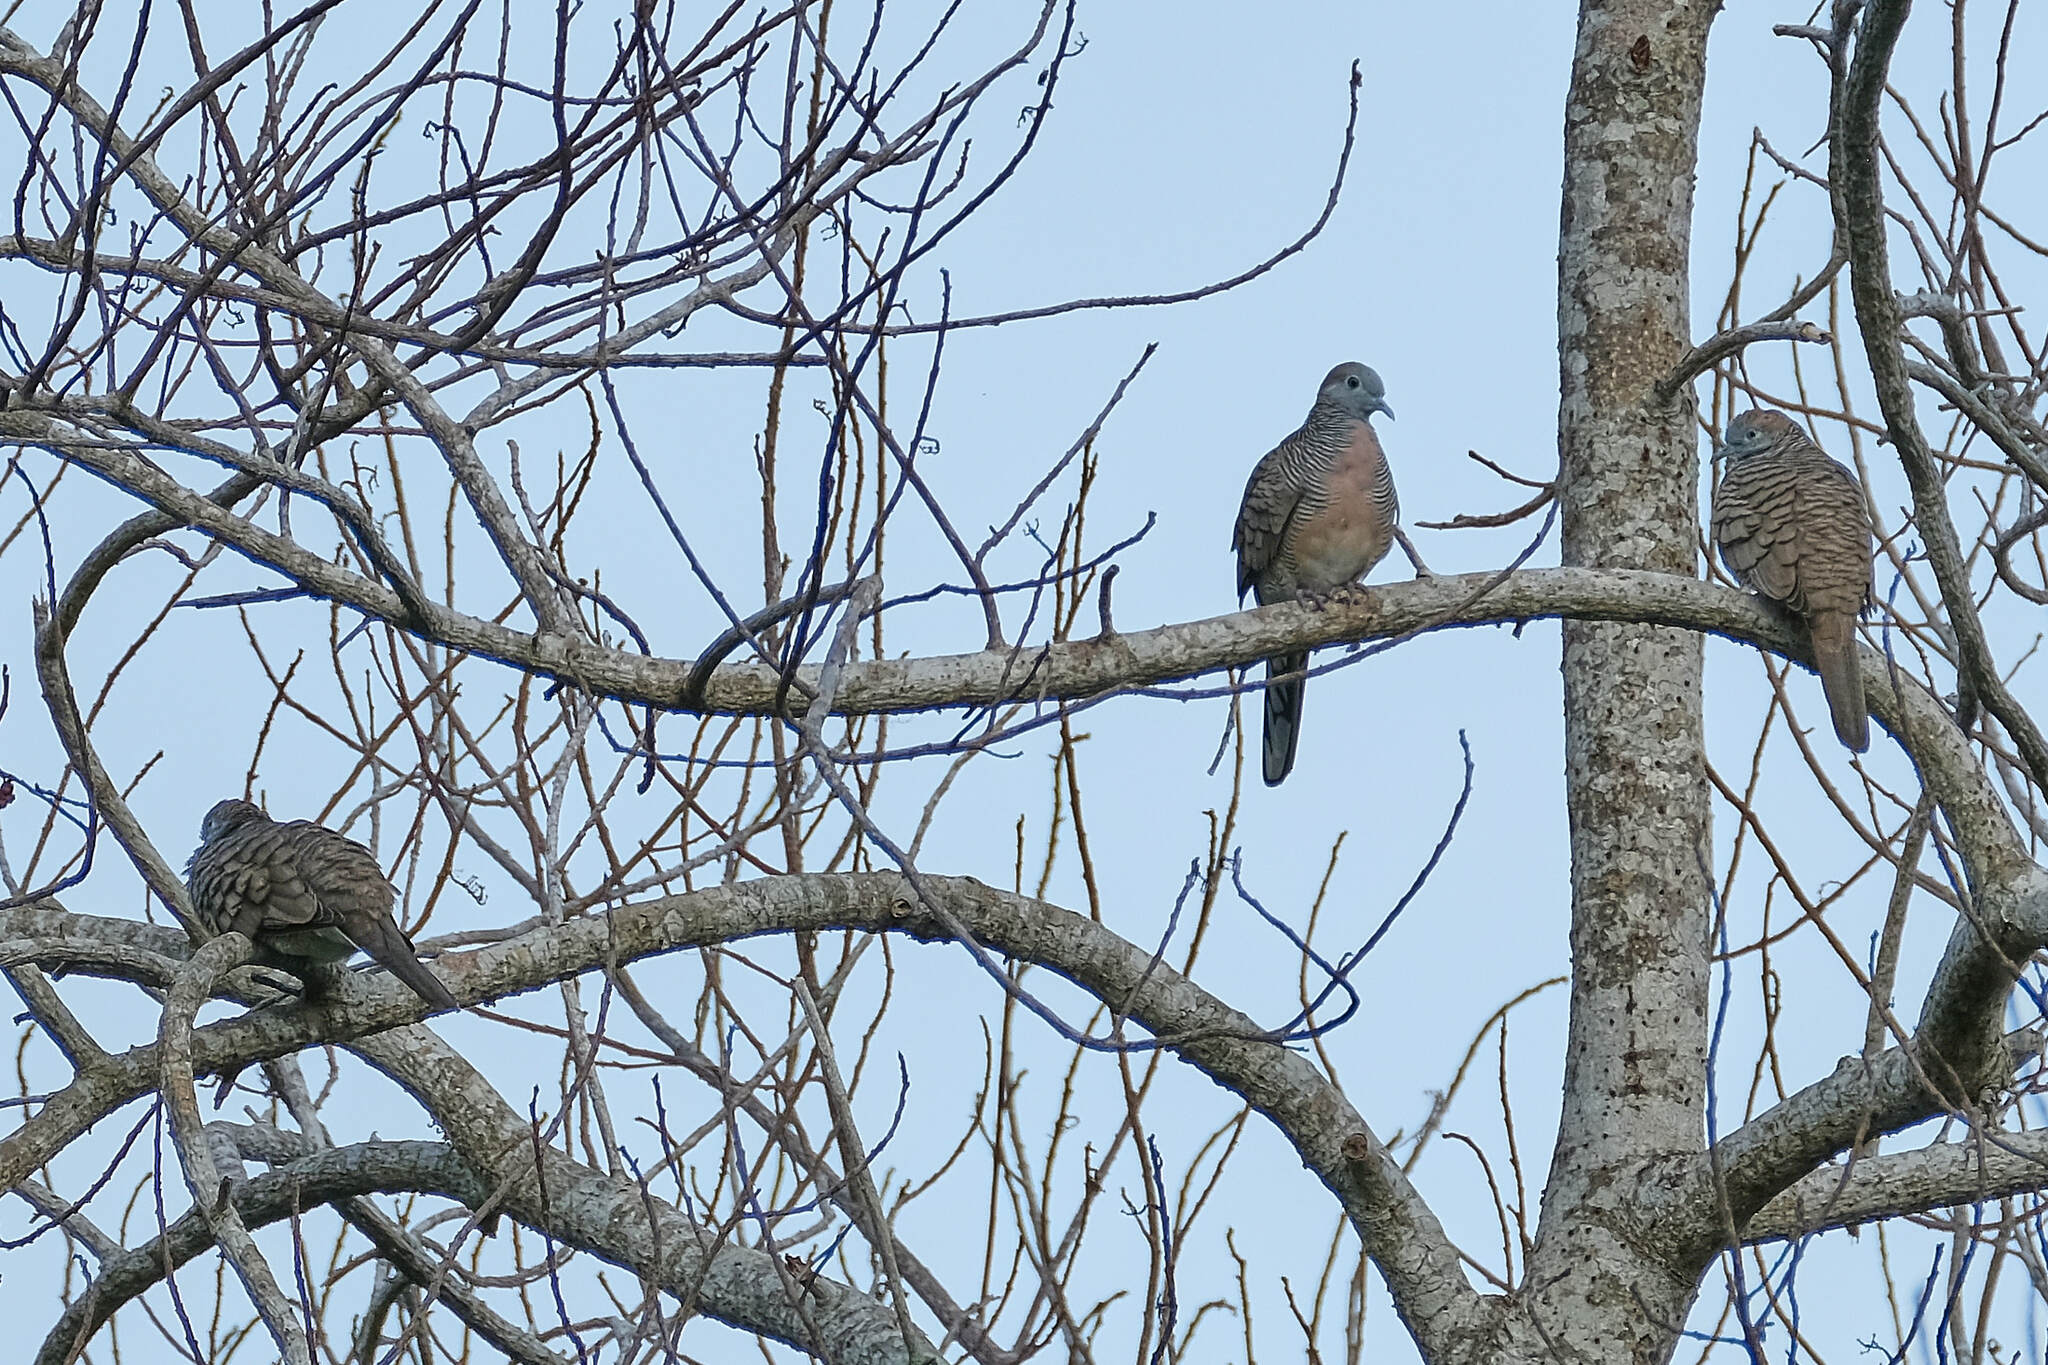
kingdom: Animalia
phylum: Chordata
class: Aves
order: Columbiformes
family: Columbidae
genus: Geopelia
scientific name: Geopelia striata
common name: Zebra dove
